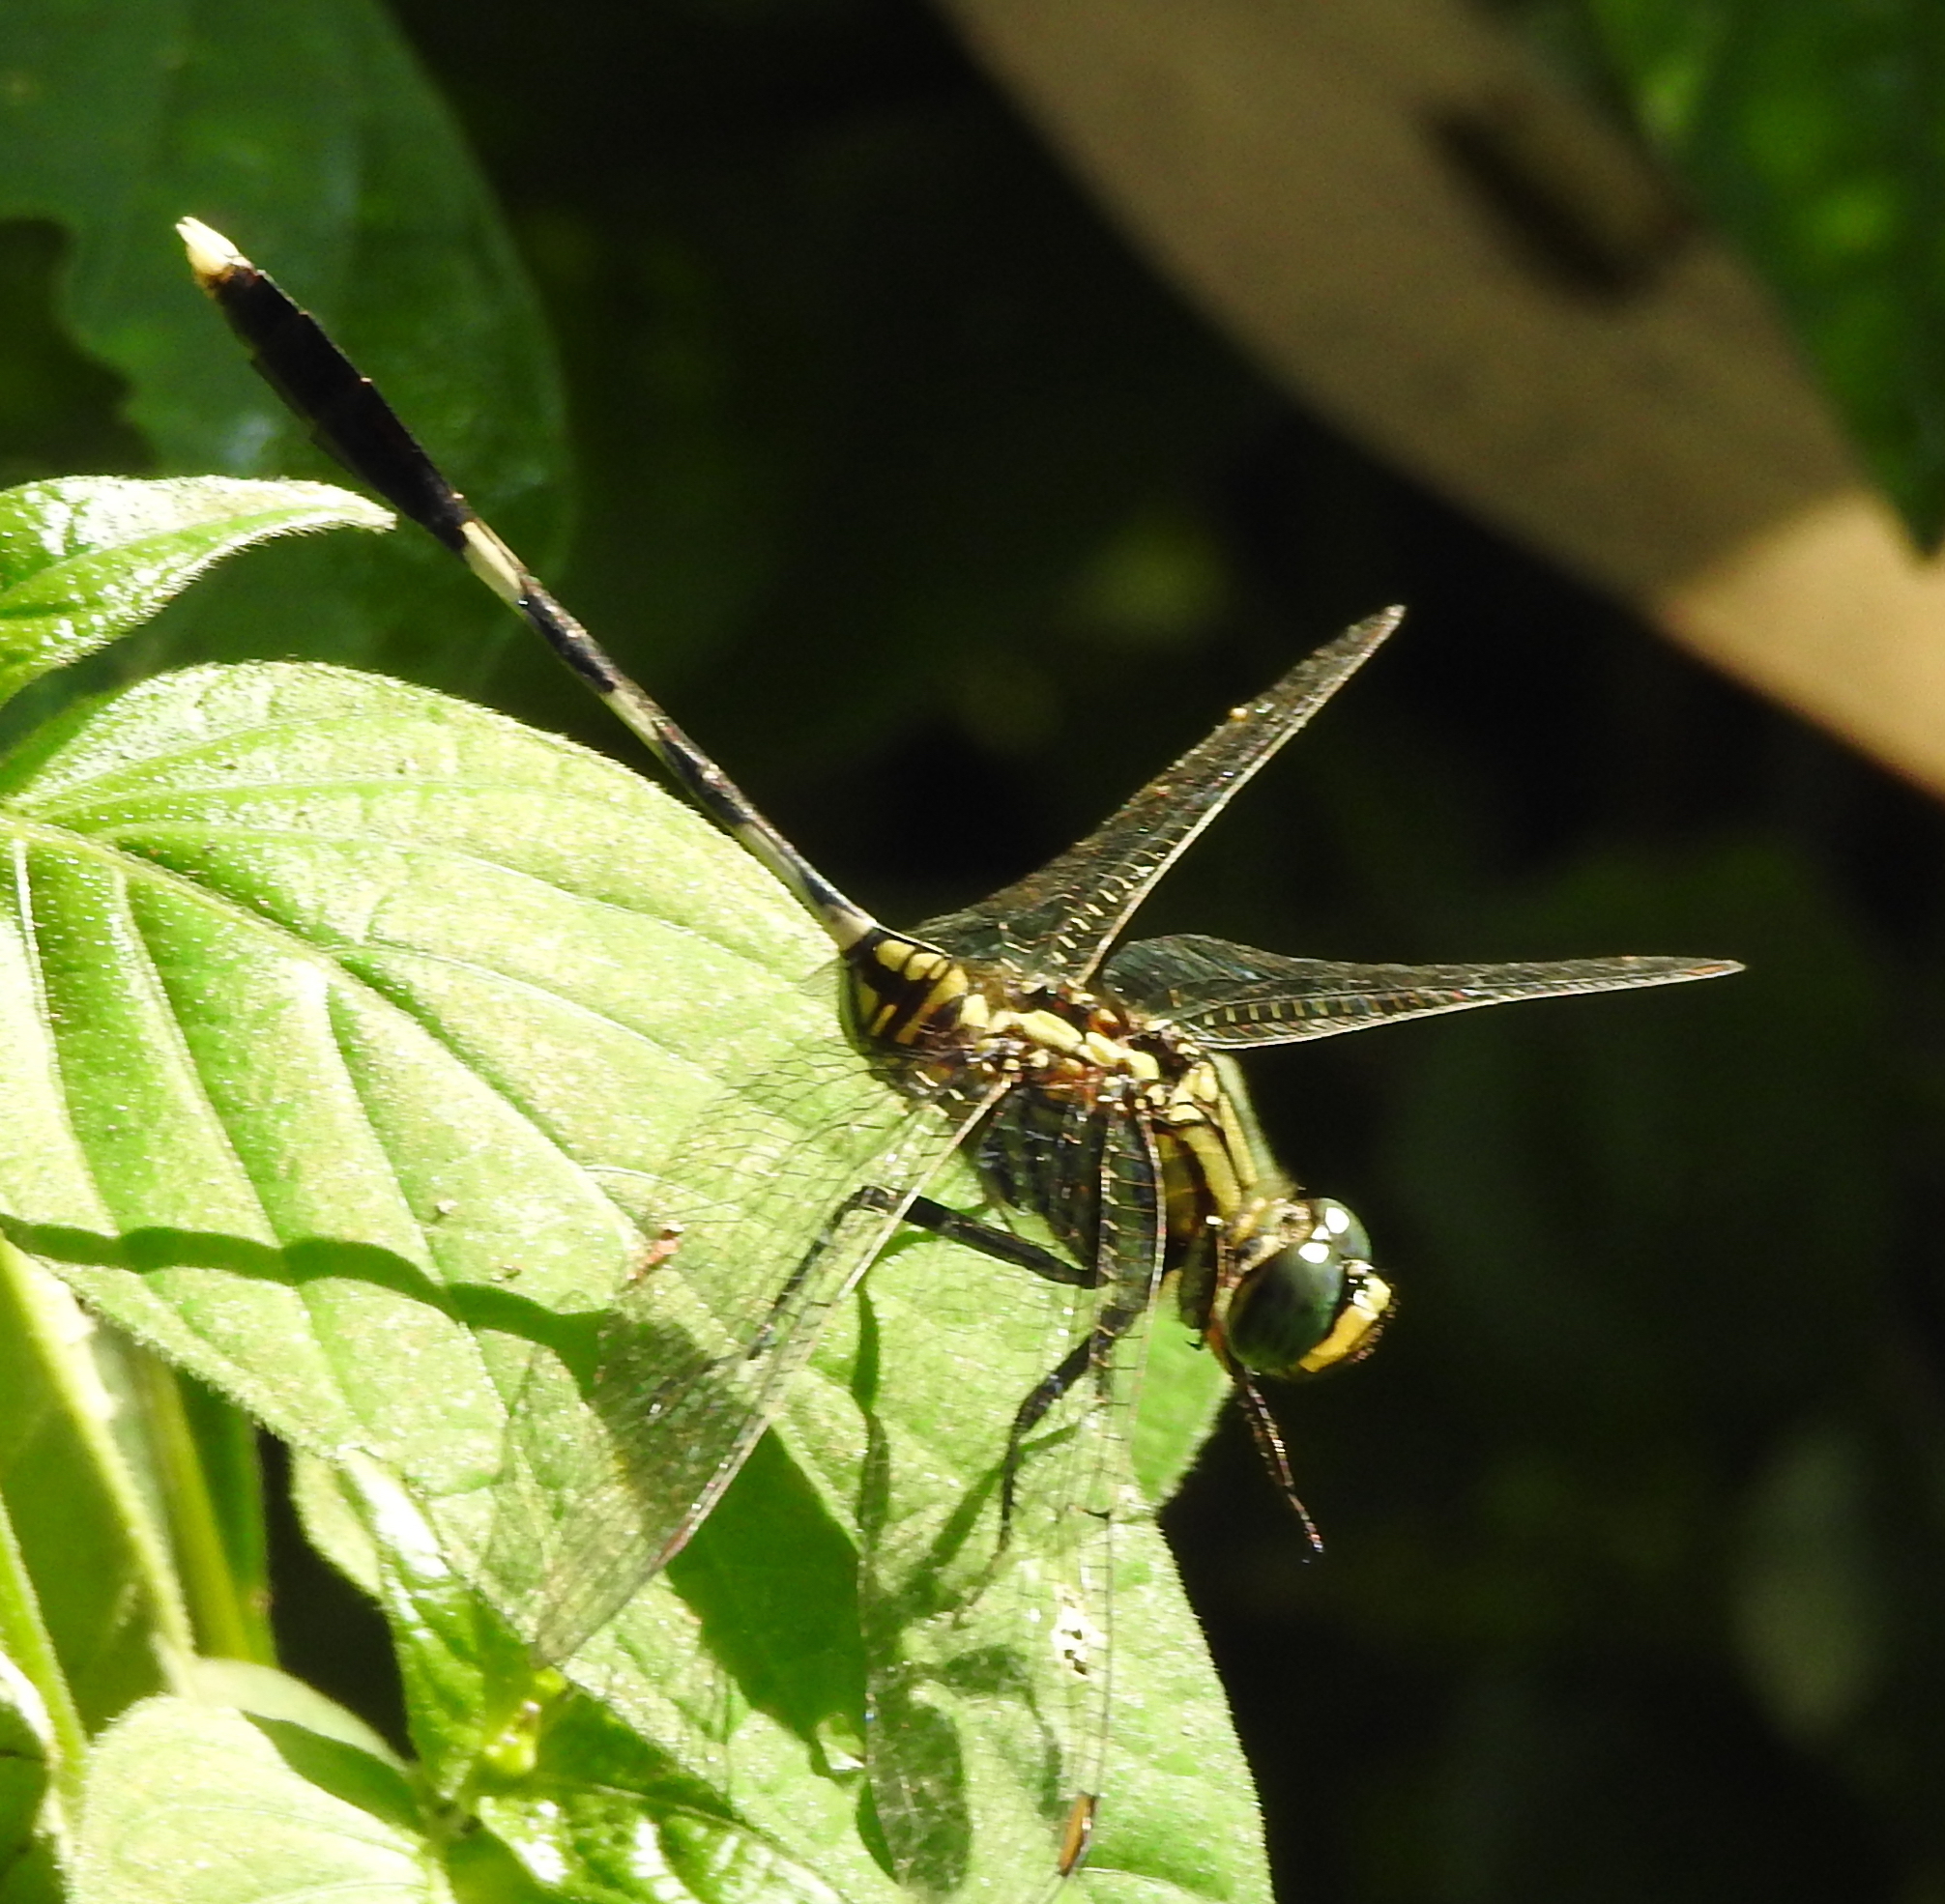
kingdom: Animalia
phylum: Arthropoda
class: Insecta
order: Odonata
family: Libellulidae
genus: Orthetrum
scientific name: Orthetrum sabina
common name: Slender skimmer
